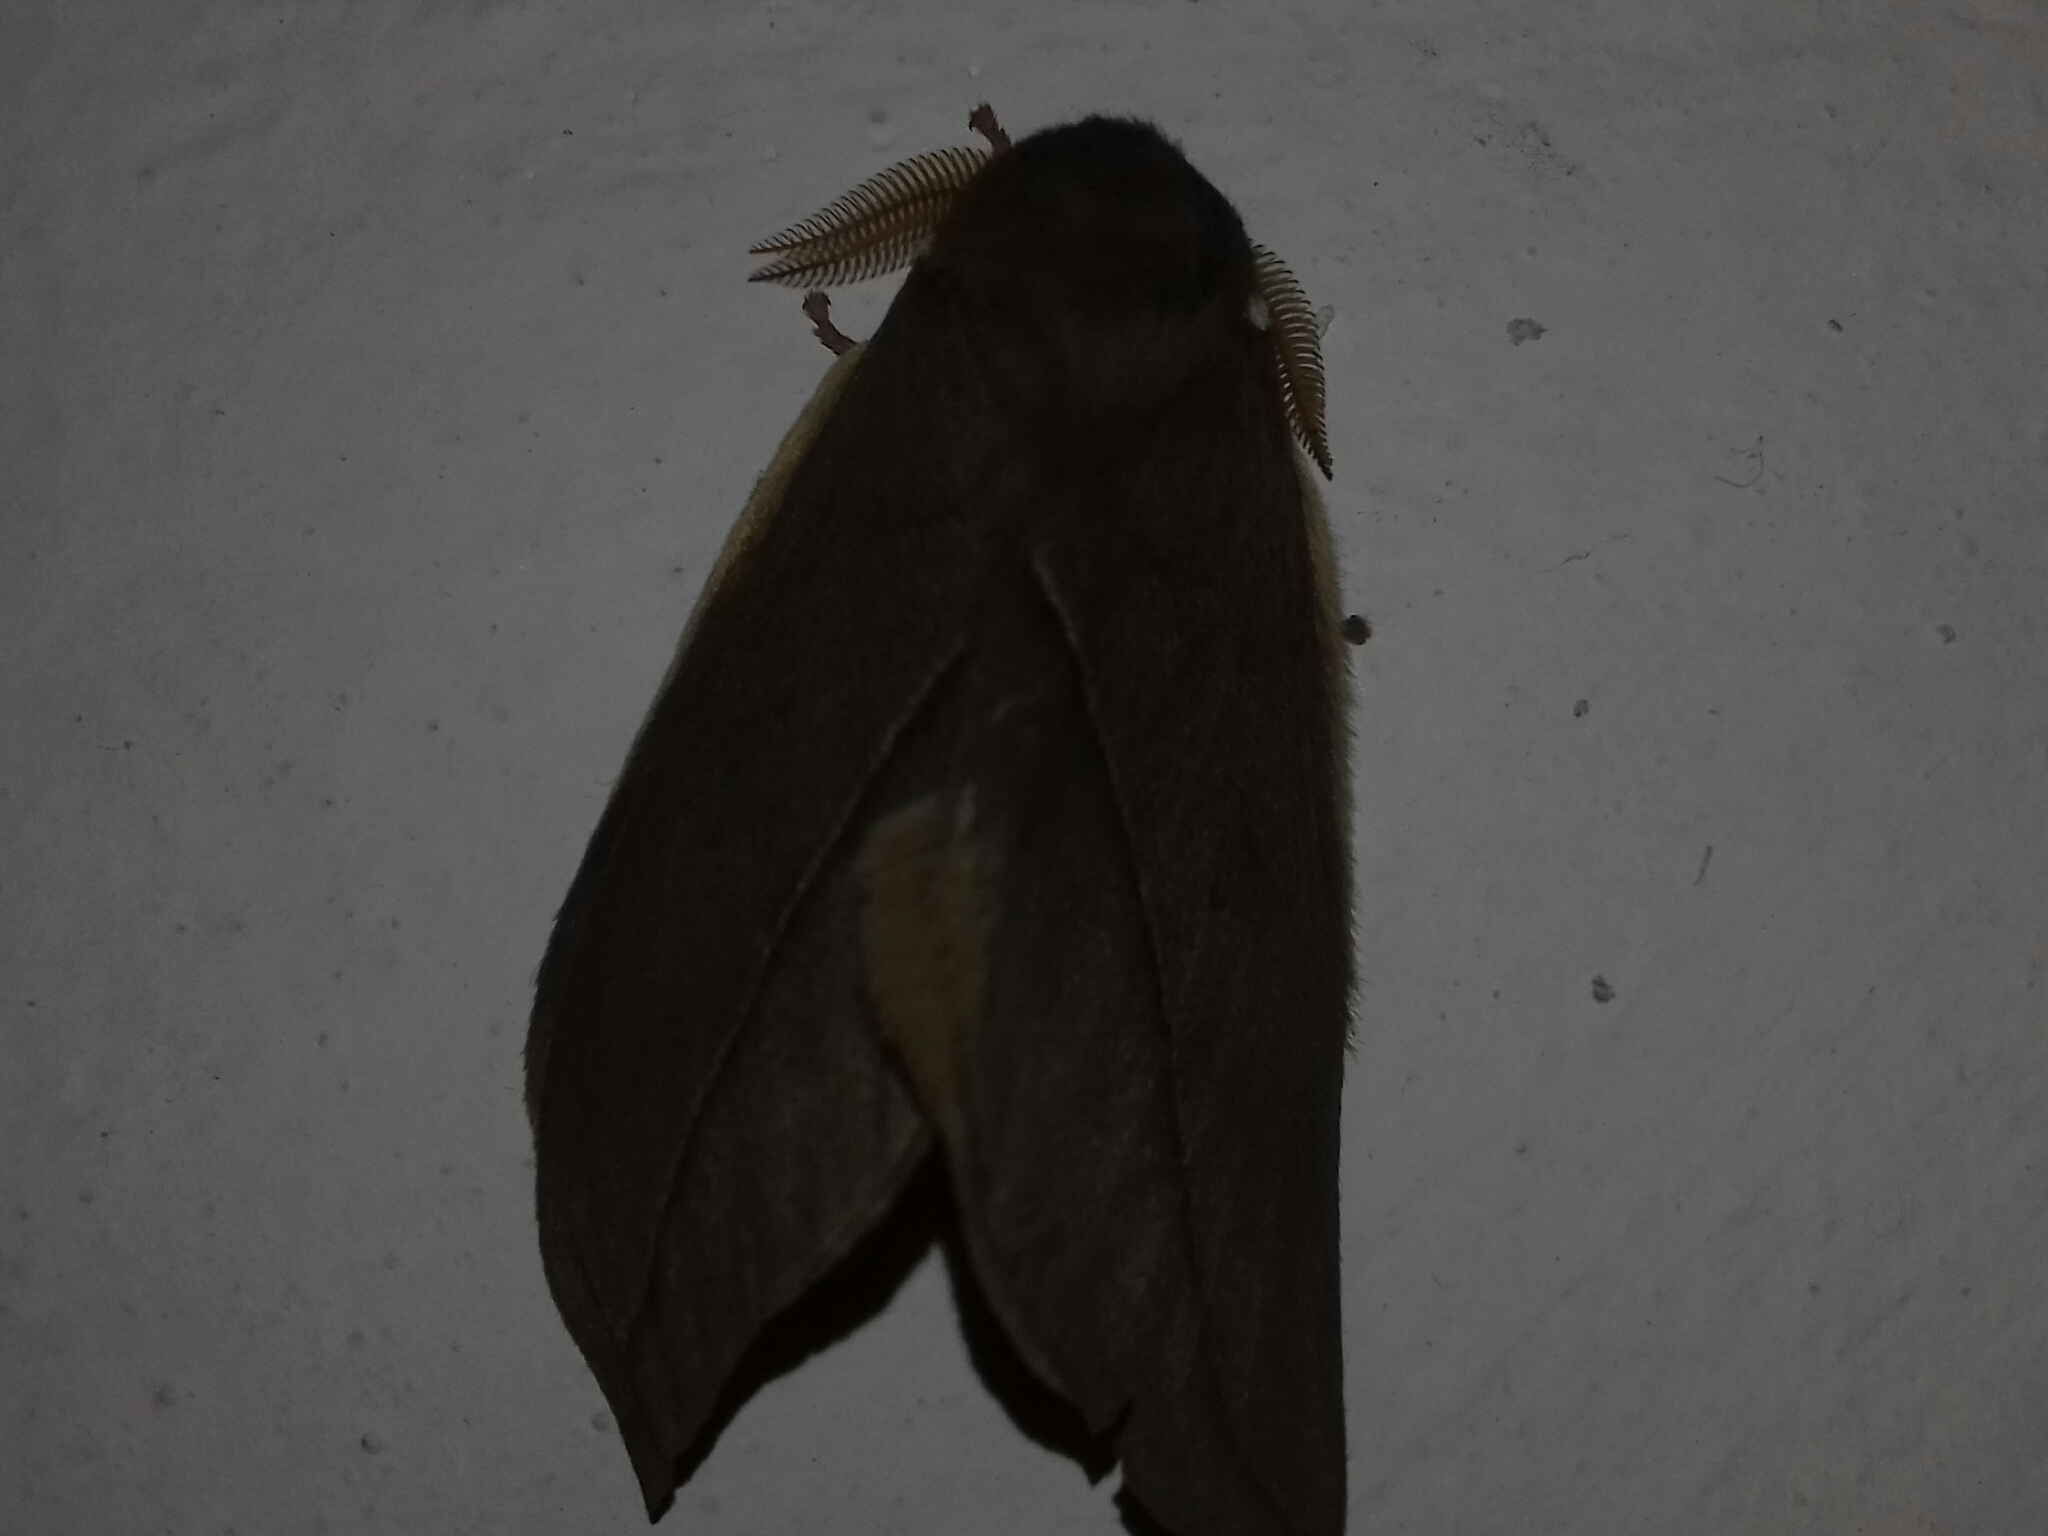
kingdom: Animalia
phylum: Arthropoda
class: Insecta
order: Lepidoptera
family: Saturniidae
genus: Automeris
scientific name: Automeris cecrops
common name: Cecrops eyed silkmoth
